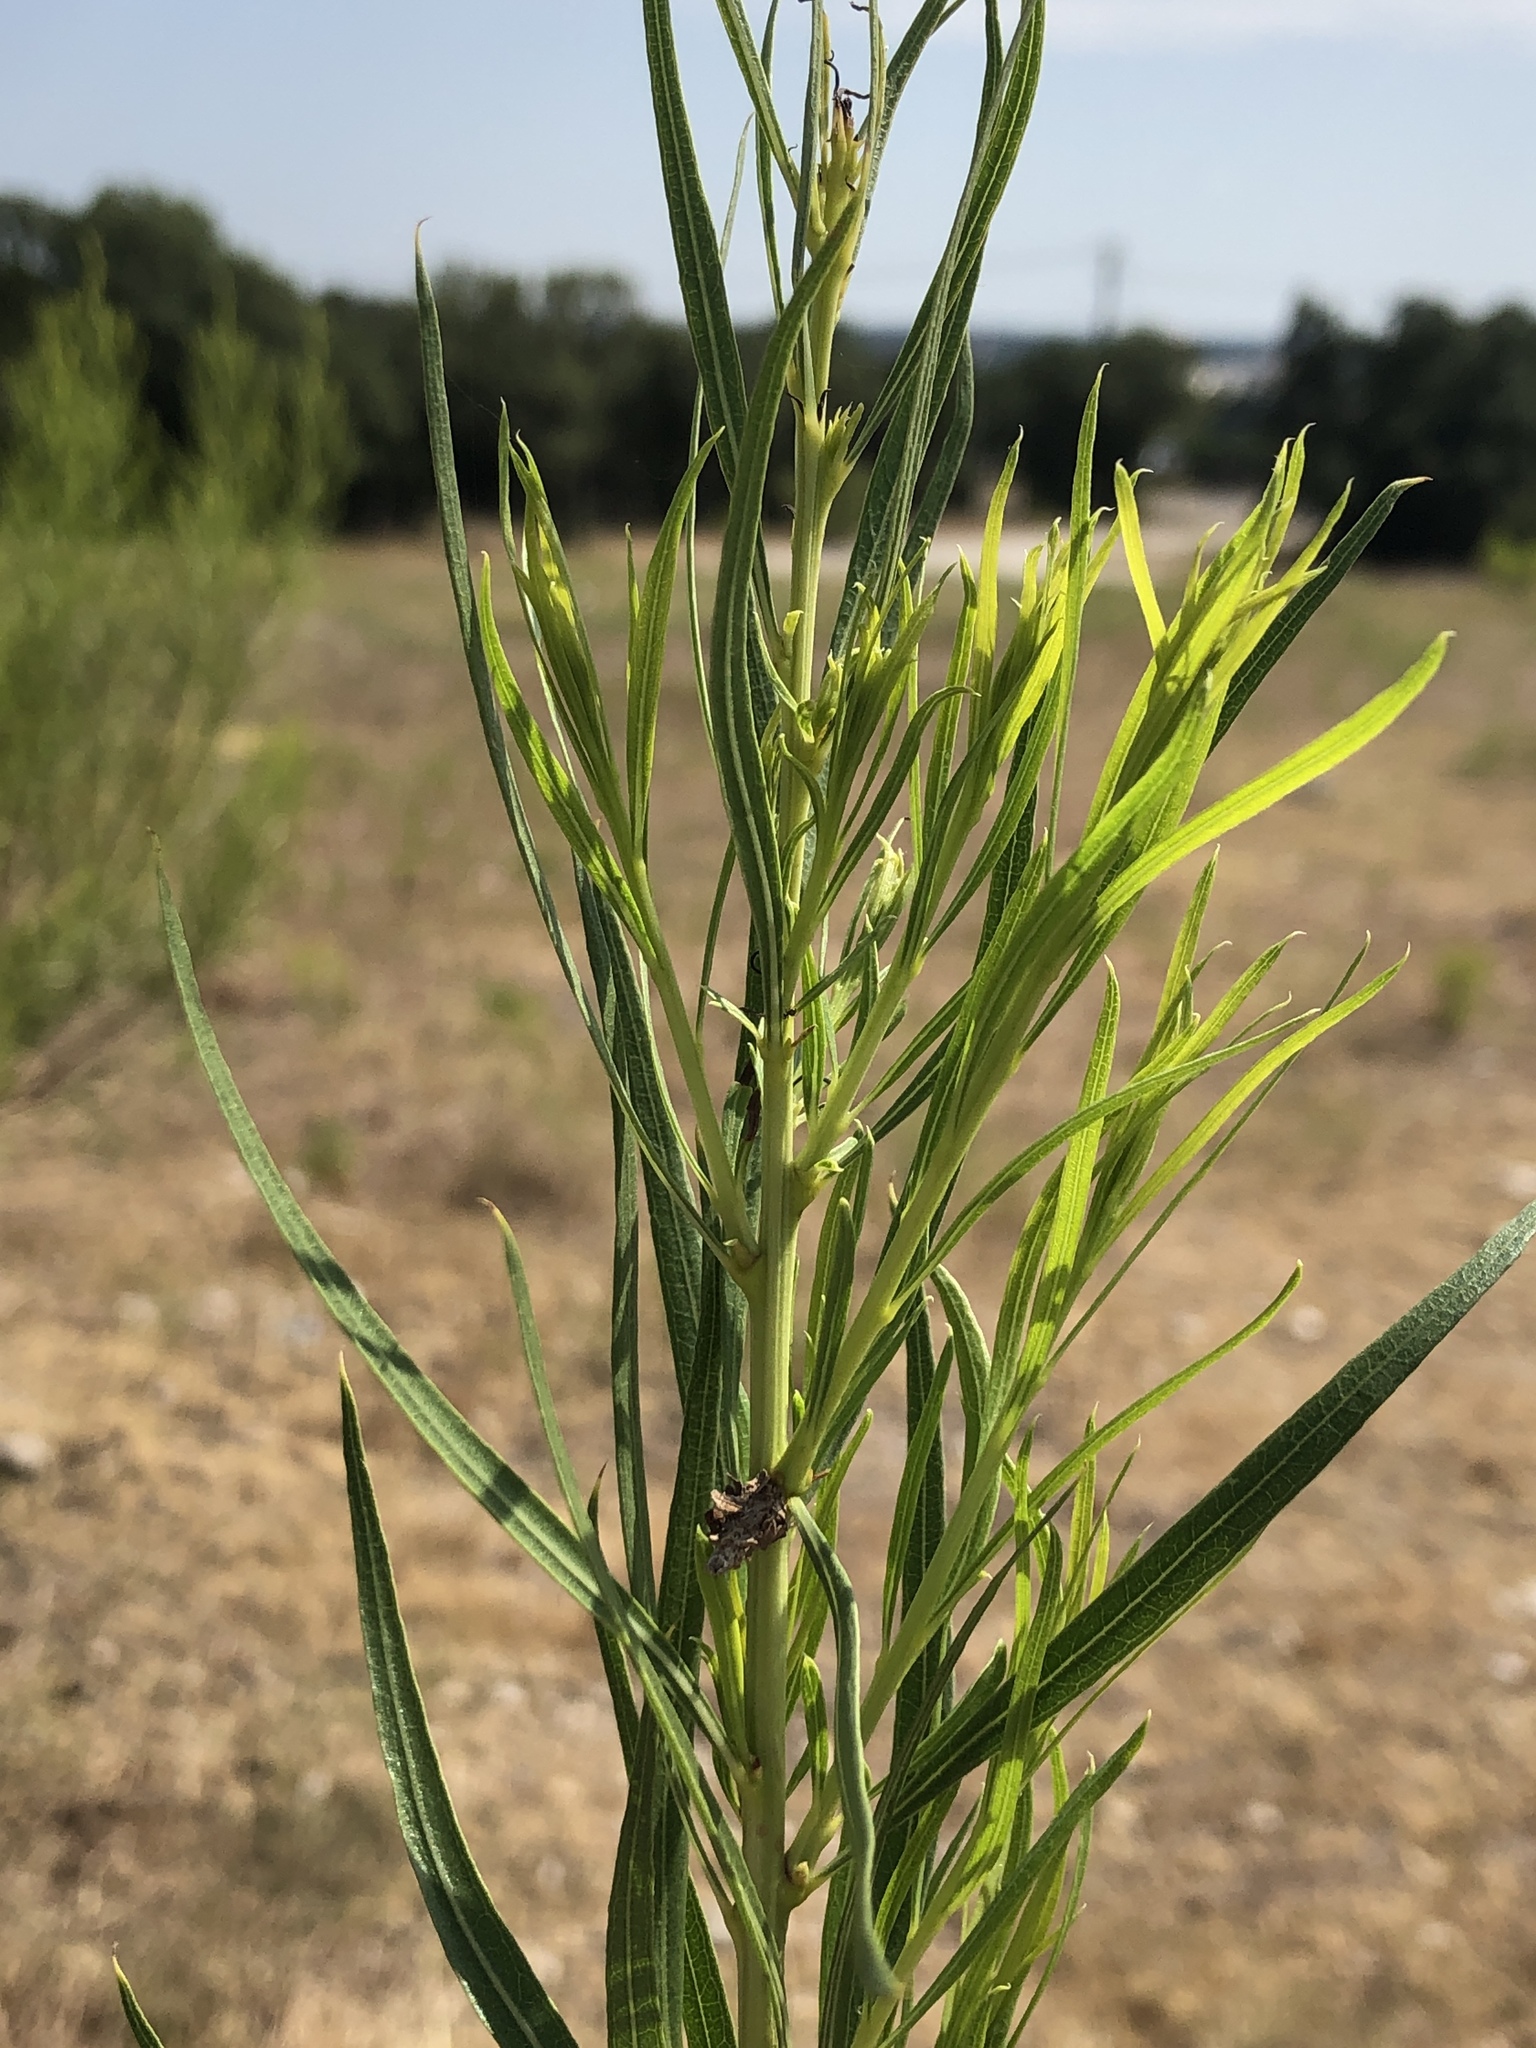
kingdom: Plantae
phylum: Tracheophyta
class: Magnoliopsida
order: Lamiales
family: Bignoniaceae
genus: Chilopsis
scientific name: Chilopsis linearis
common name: Desert-willow
